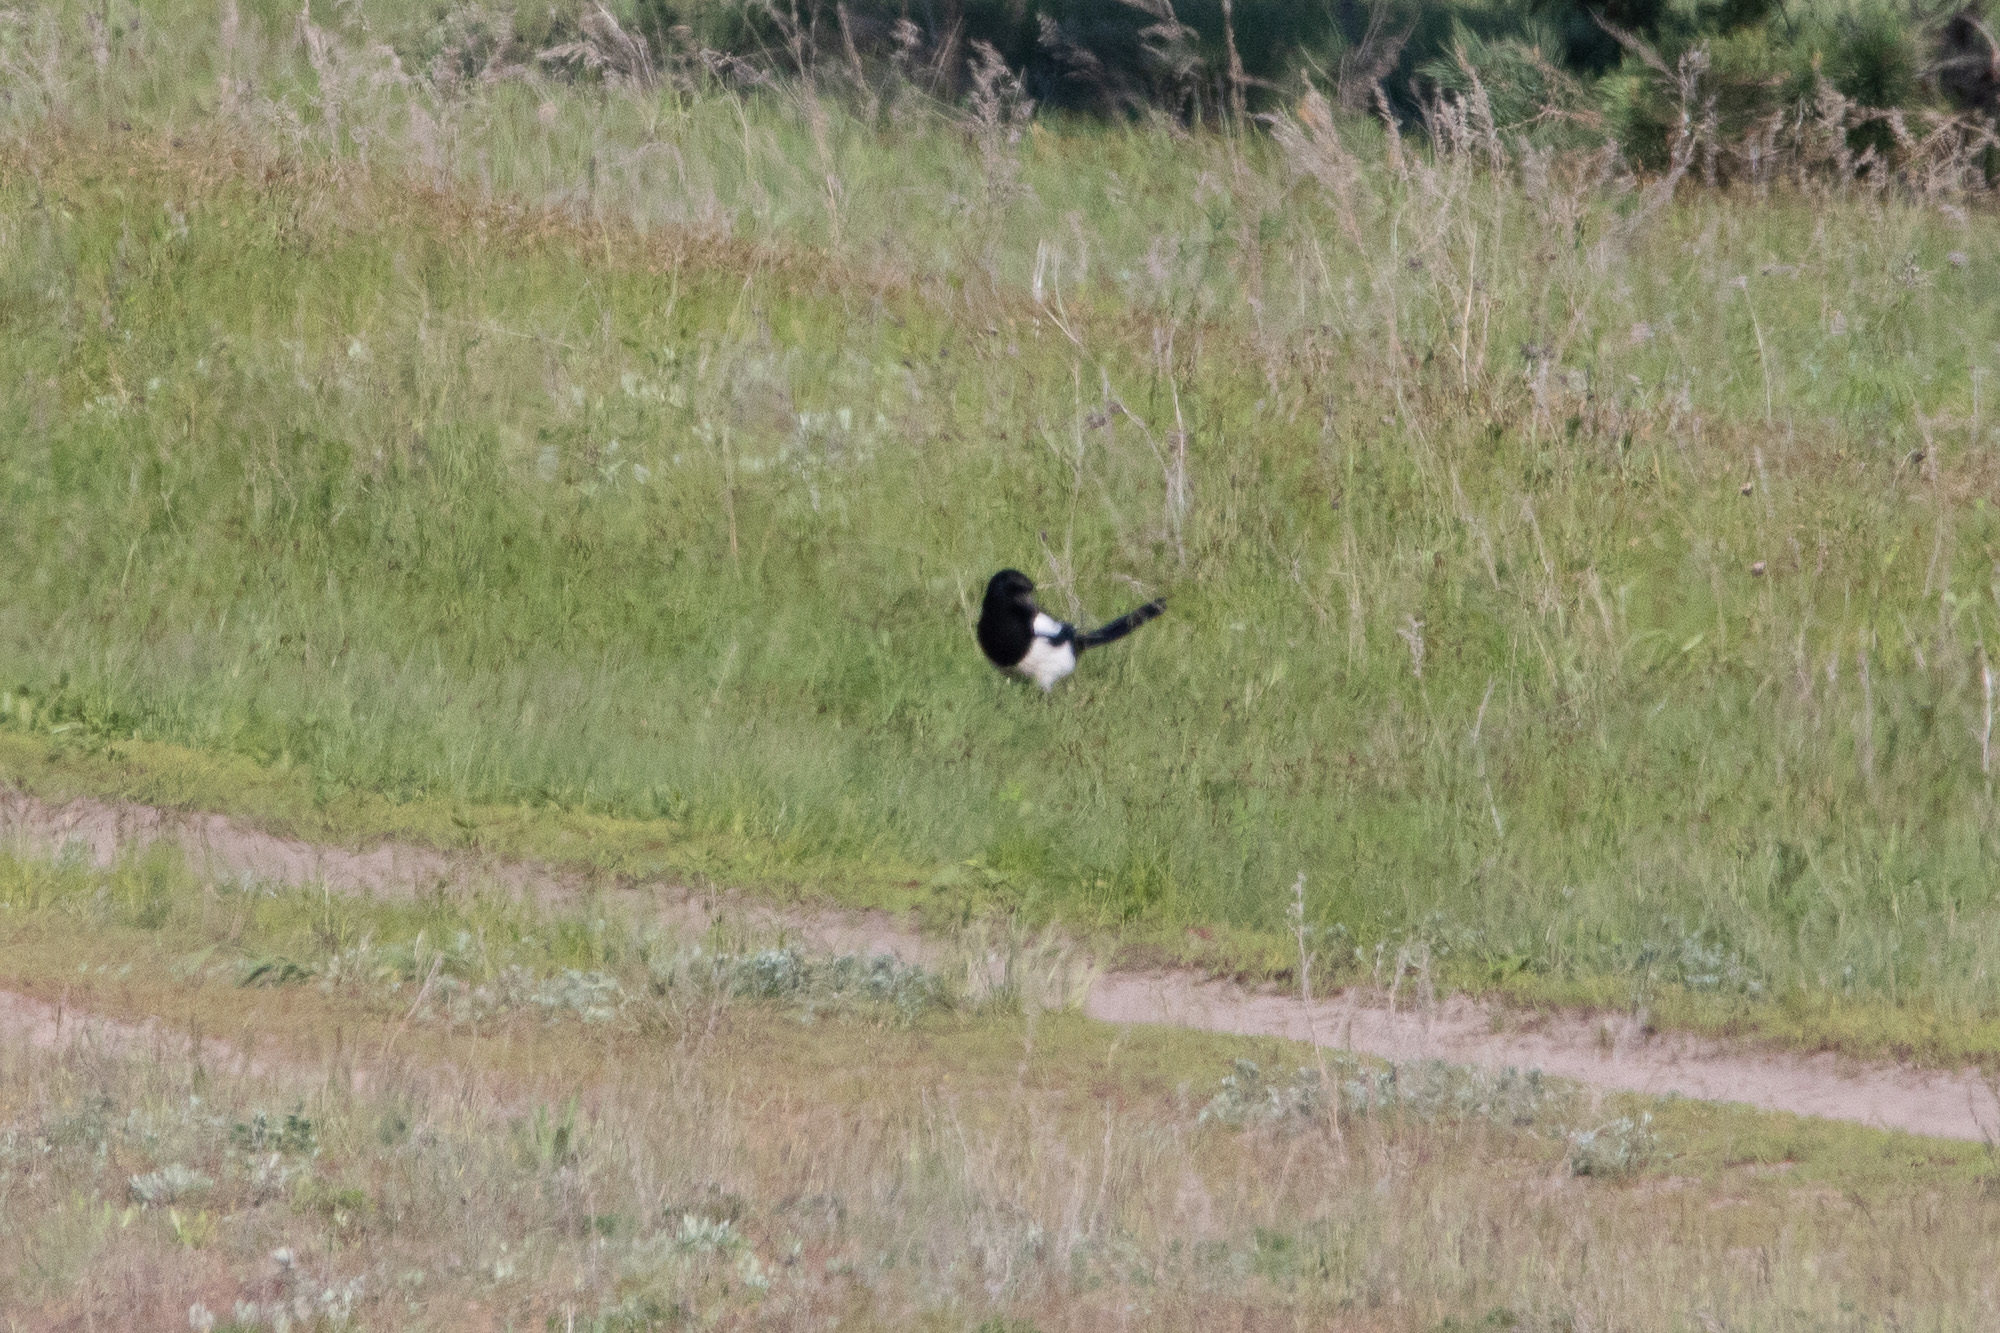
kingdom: Animalia
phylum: Chordata
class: Aves
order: Passeriformes
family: Corvidae
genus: Pica
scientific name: Pica pica
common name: Eurasian magpie
